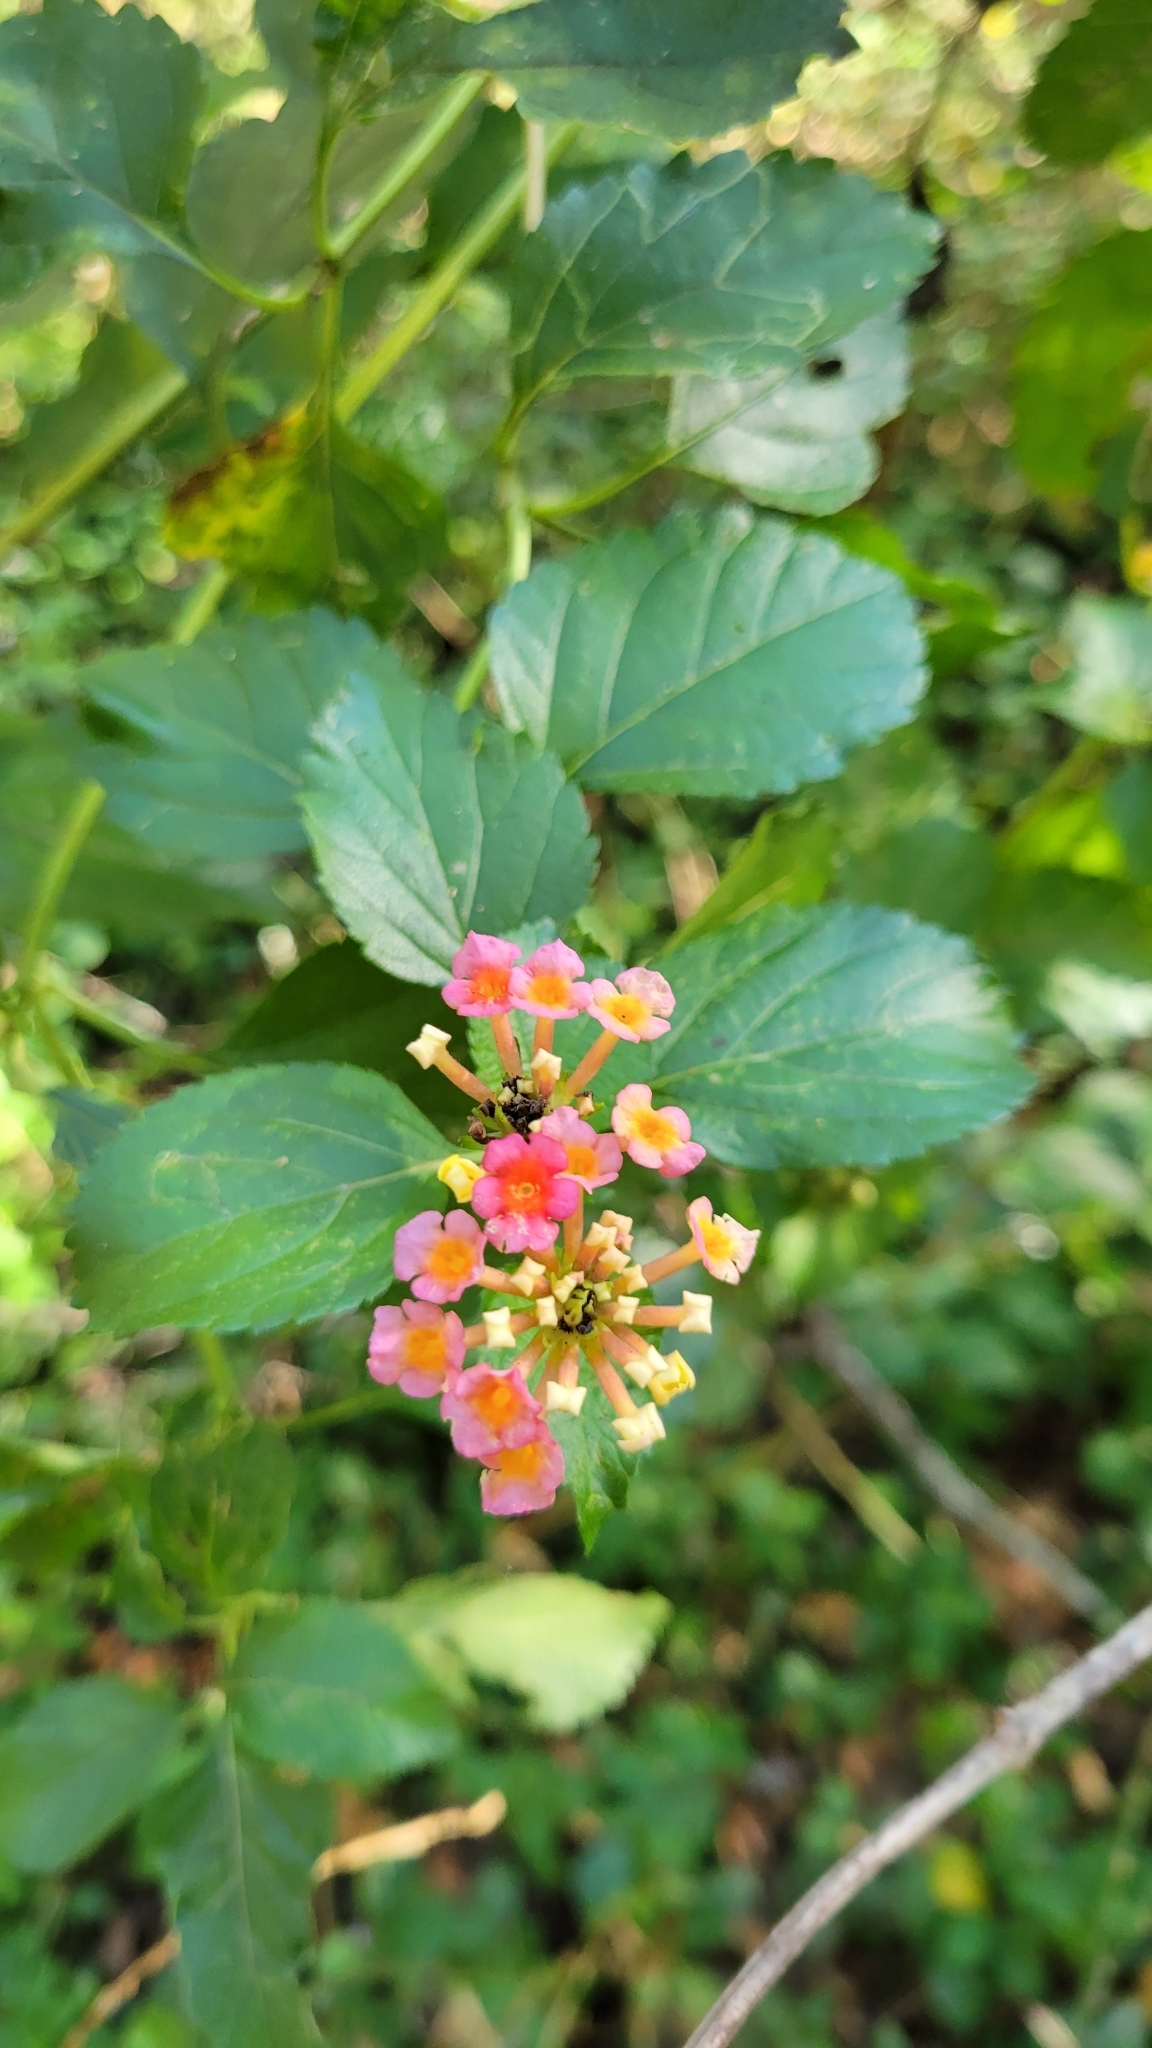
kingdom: Plantae
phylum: Tracheophyta
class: Magnoliopsida
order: Lamiales
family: Verbenaceae
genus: Lantana
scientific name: Lantana strigocamara
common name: Lantana
